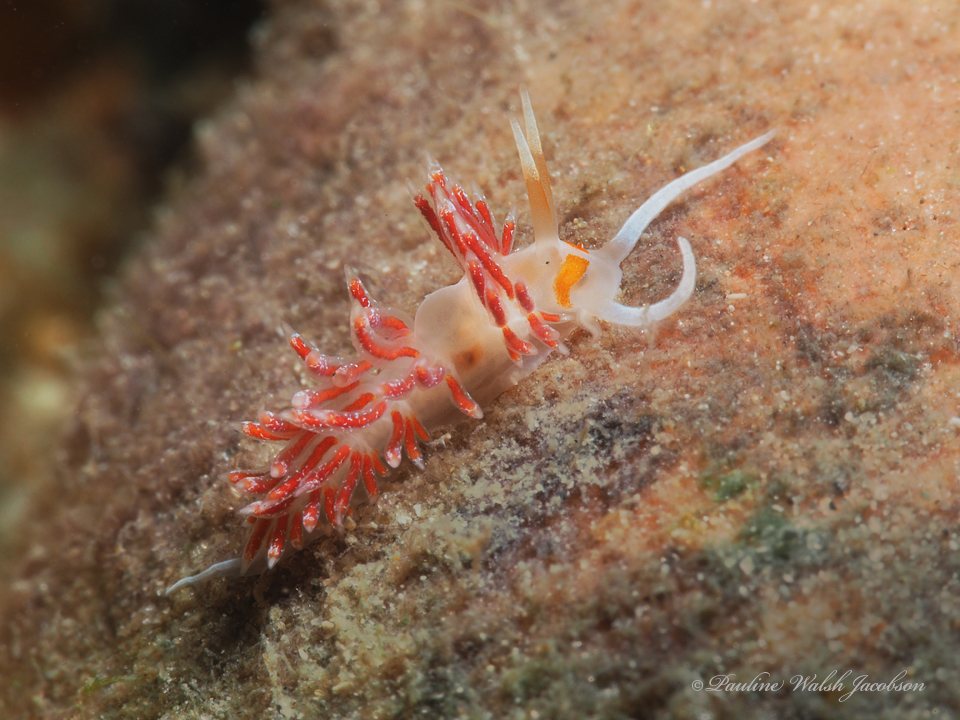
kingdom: Animalia
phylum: Mollusca
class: Gastropoda
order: Nudibranchia
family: Facelinidae
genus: Cratena
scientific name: Cratena minor
